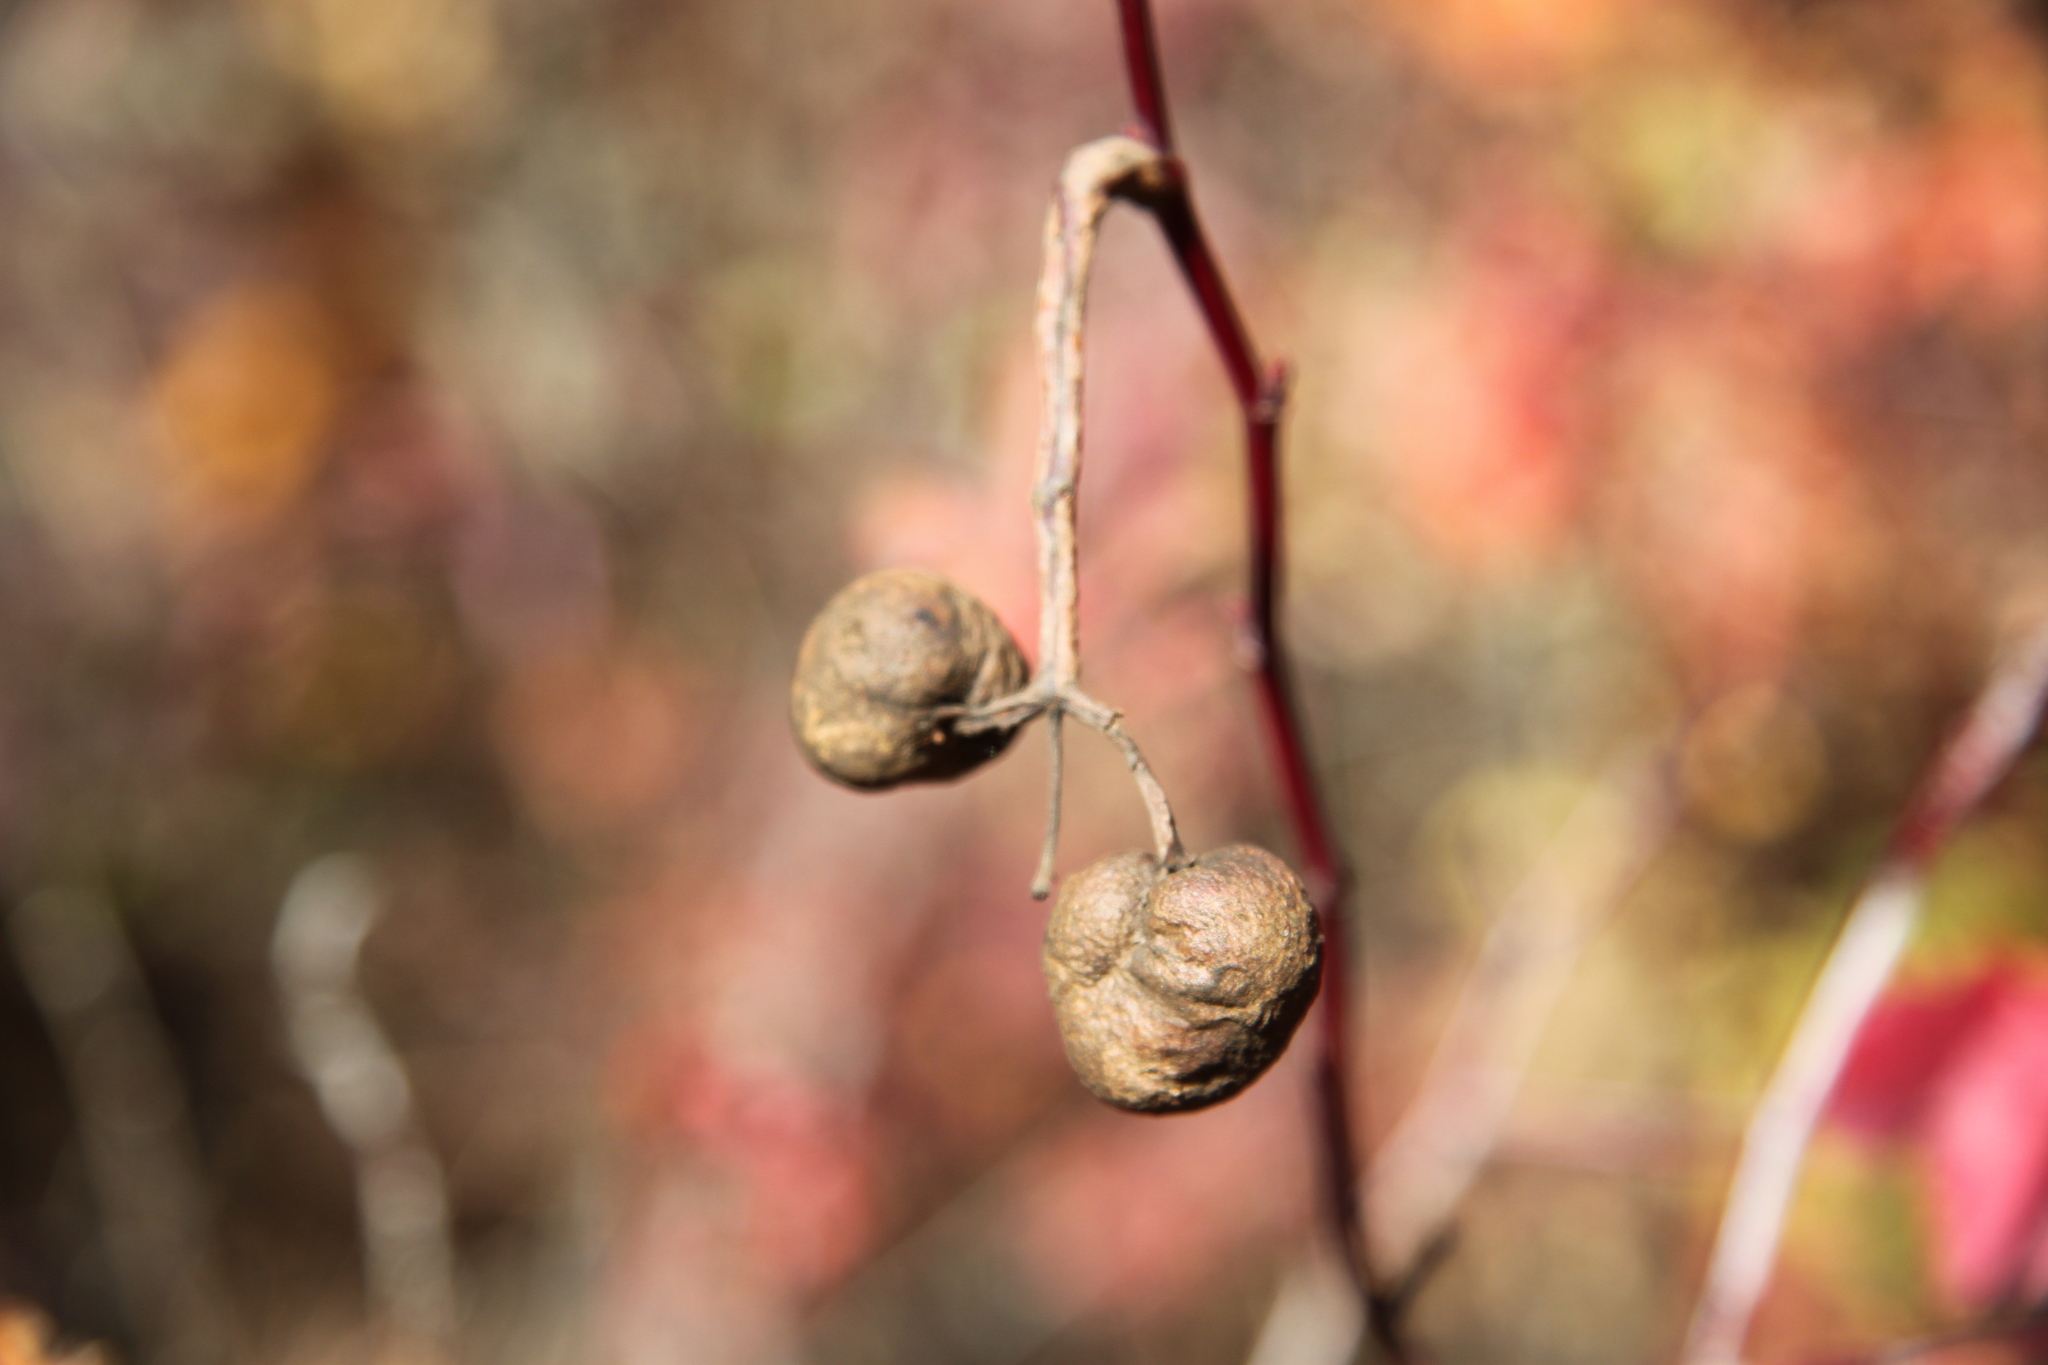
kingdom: Animalia
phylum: Arthropoda
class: Insecta
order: Hymenoptera
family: Cynipidae
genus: Diplolepis
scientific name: Diplolepis variabilis
